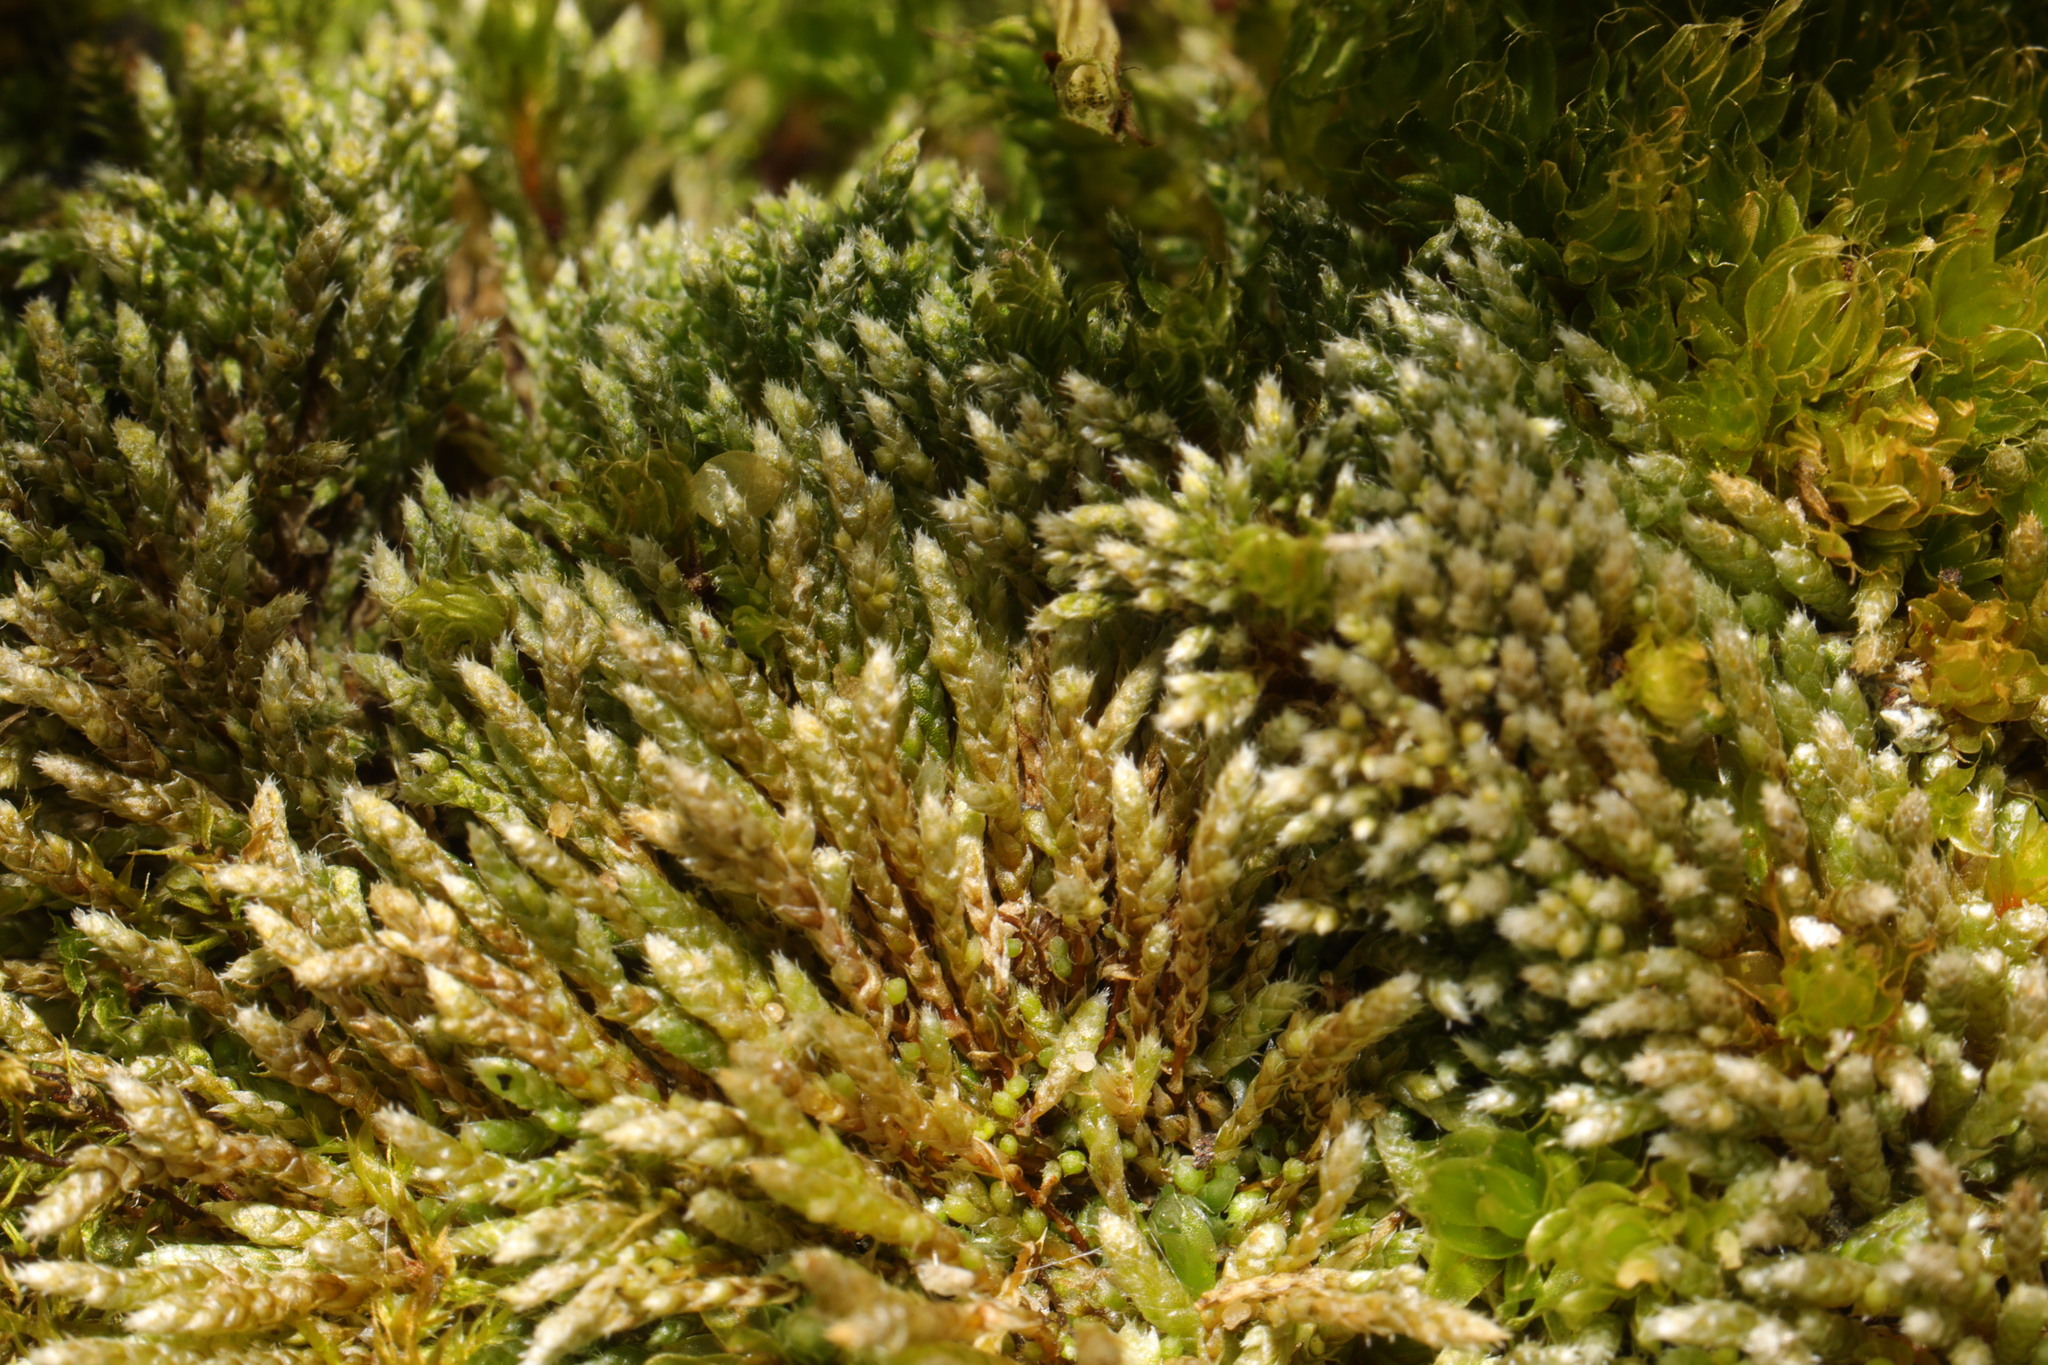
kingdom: Plantae
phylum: Bryophyta
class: Bryopsida
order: Bryales
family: Bryaceae
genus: Bryum
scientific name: Bryum argenteum
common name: Silver-moss
